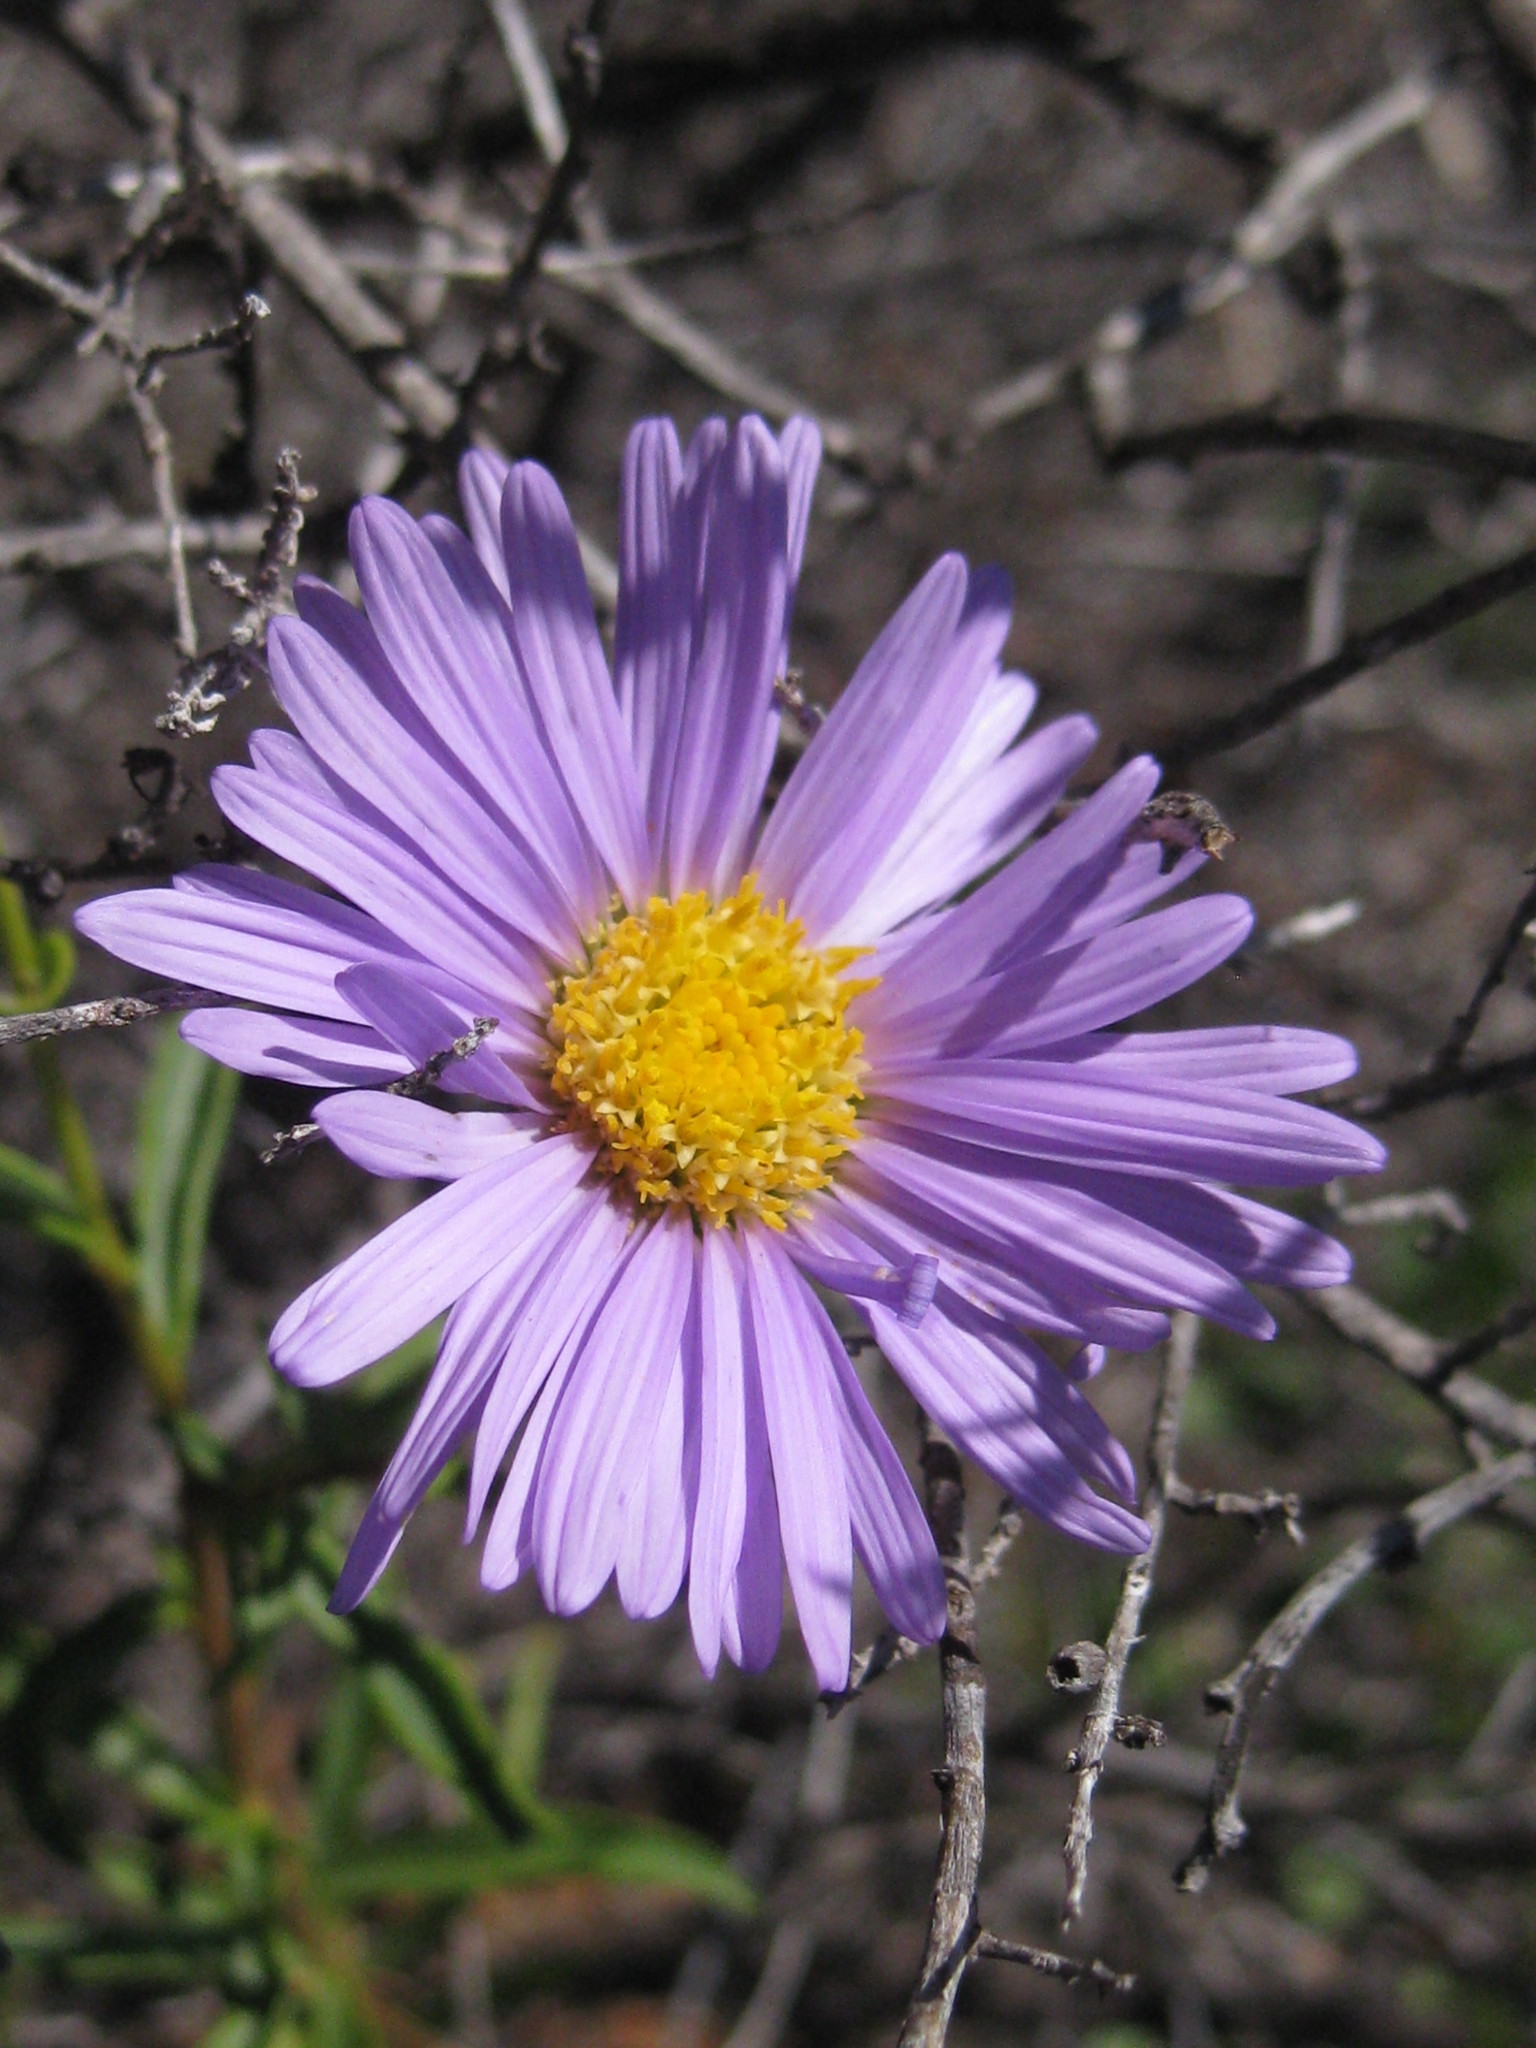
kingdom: Plantae
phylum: Tracheophyta
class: Magnoliopsida
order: Asterales
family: Asteraceae
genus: Pembertonia
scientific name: Pembertonia latisquamea
